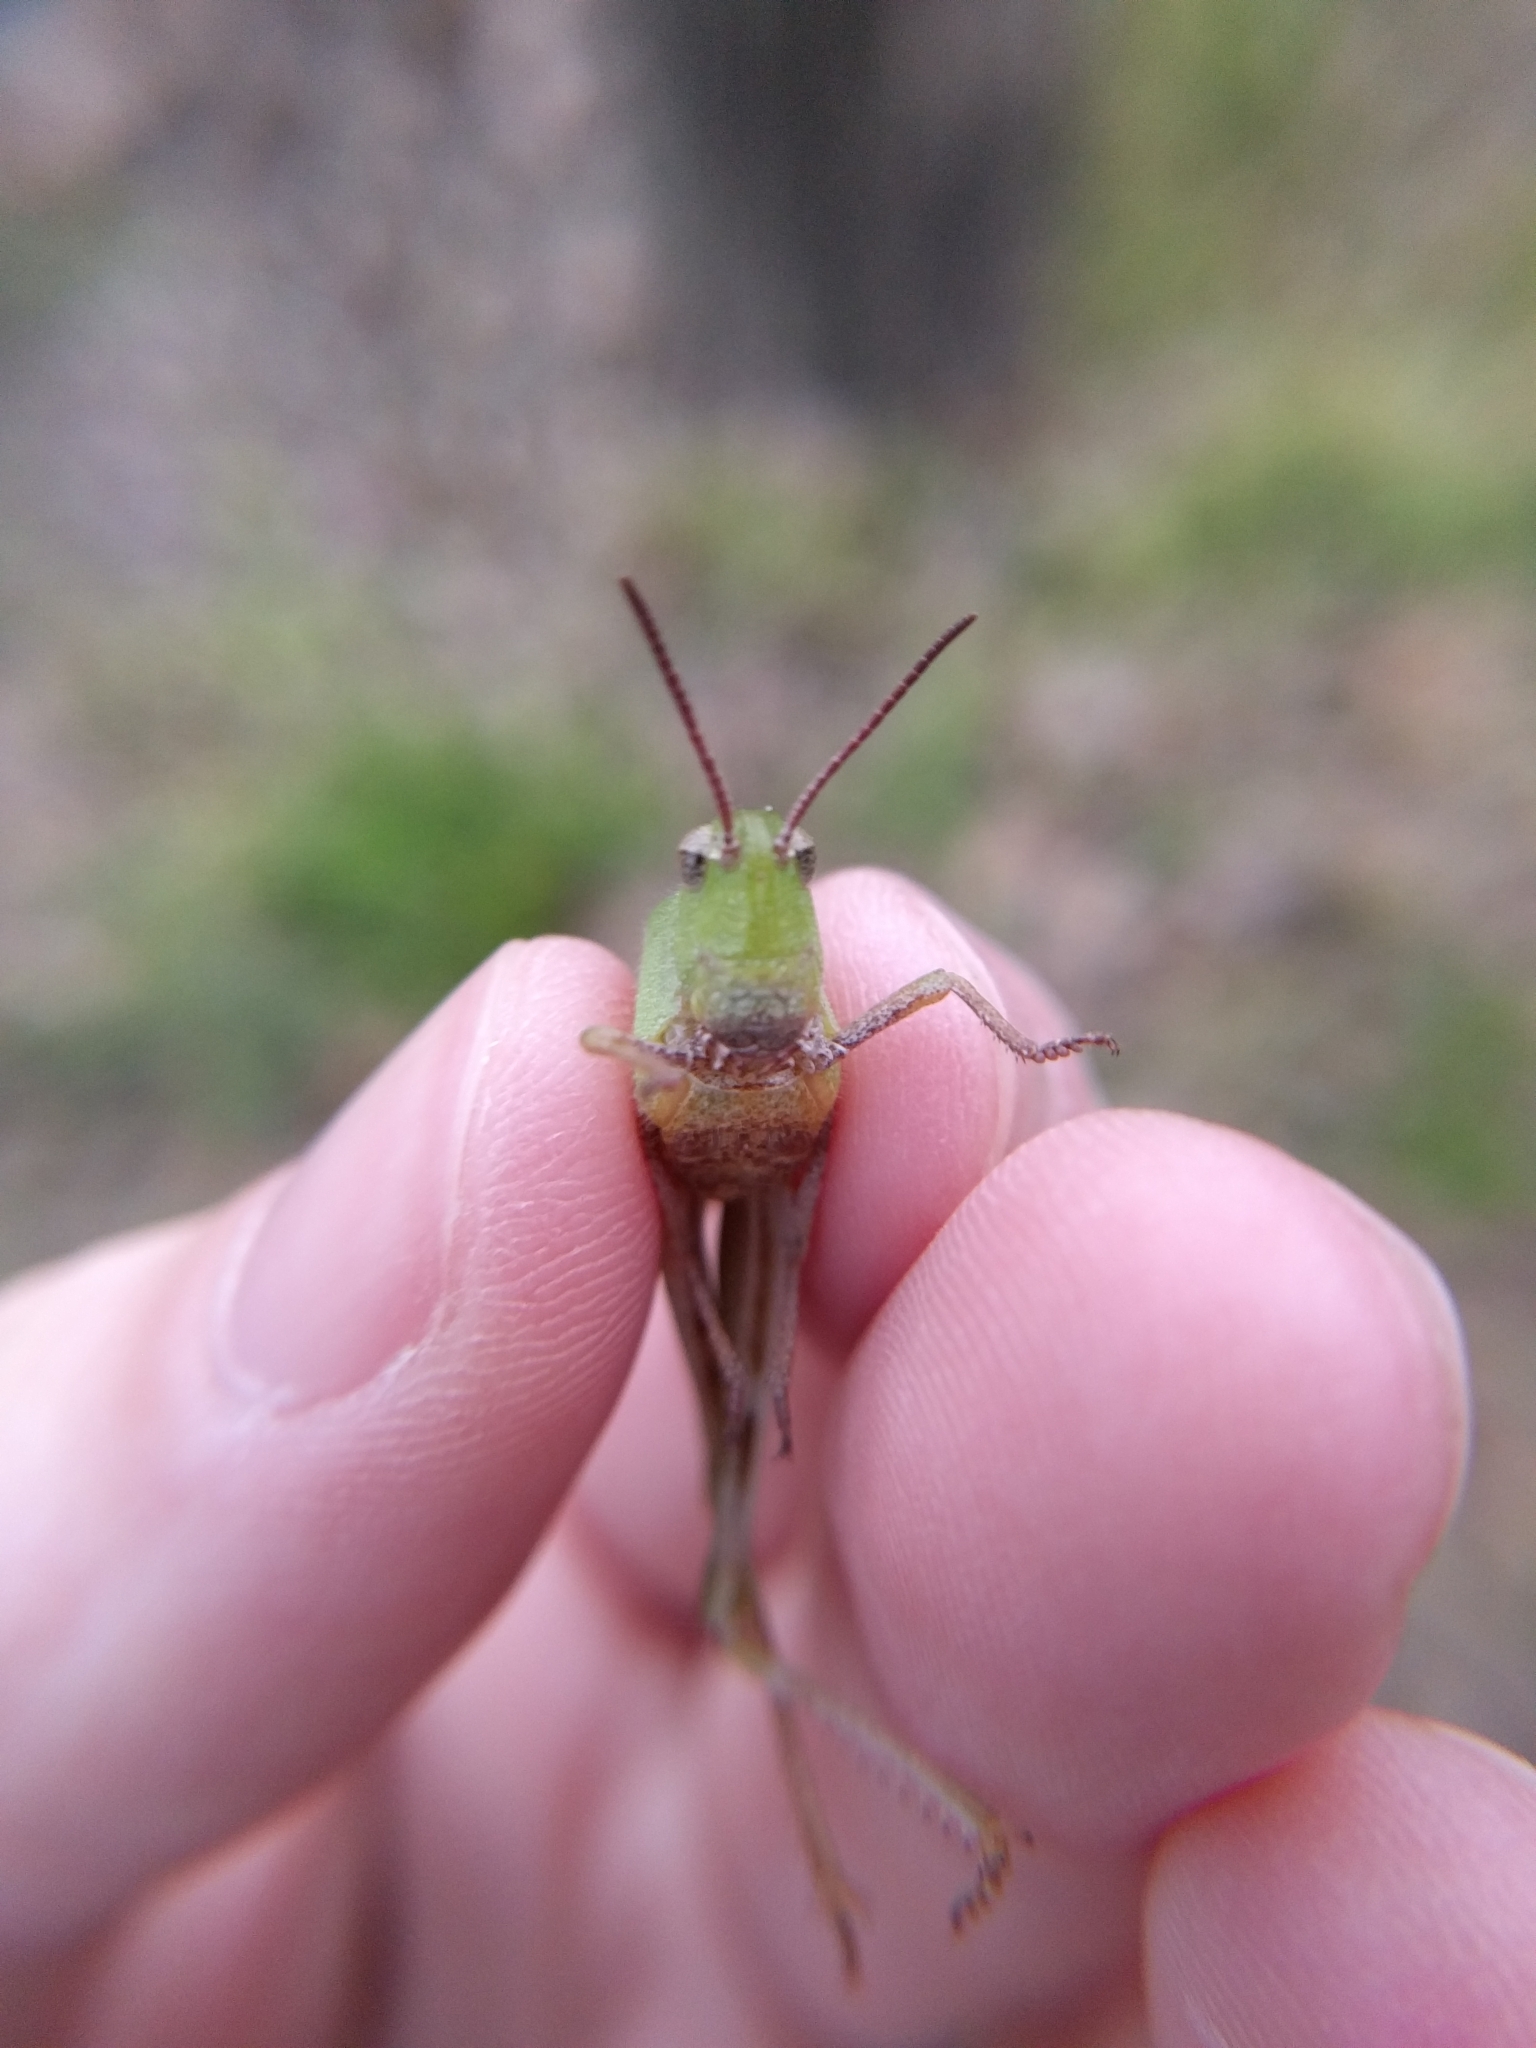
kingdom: Animalia
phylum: Arthropoda
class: Insecta
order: Orthoptera
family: Acrididae
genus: Chortophaga
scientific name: Chortophaga viridifasciata
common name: Green-striped grasshopper
